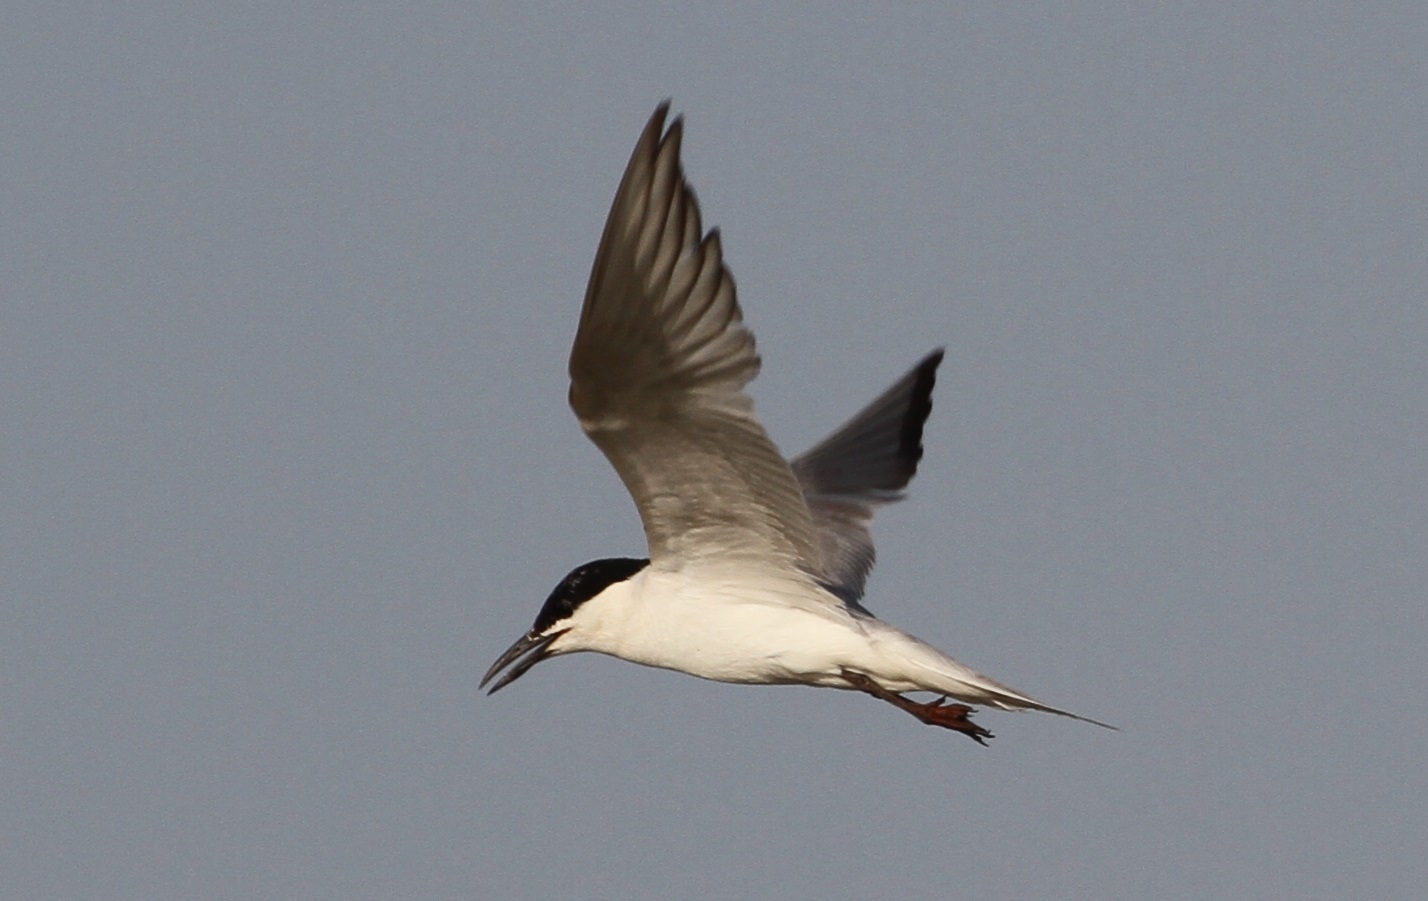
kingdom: Animalia
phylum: Chordata
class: Aves
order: Charadriiformes
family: Laridae
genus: Gelochelidon
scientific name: Gelochelidon nilotica
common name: Gull-billed tern
